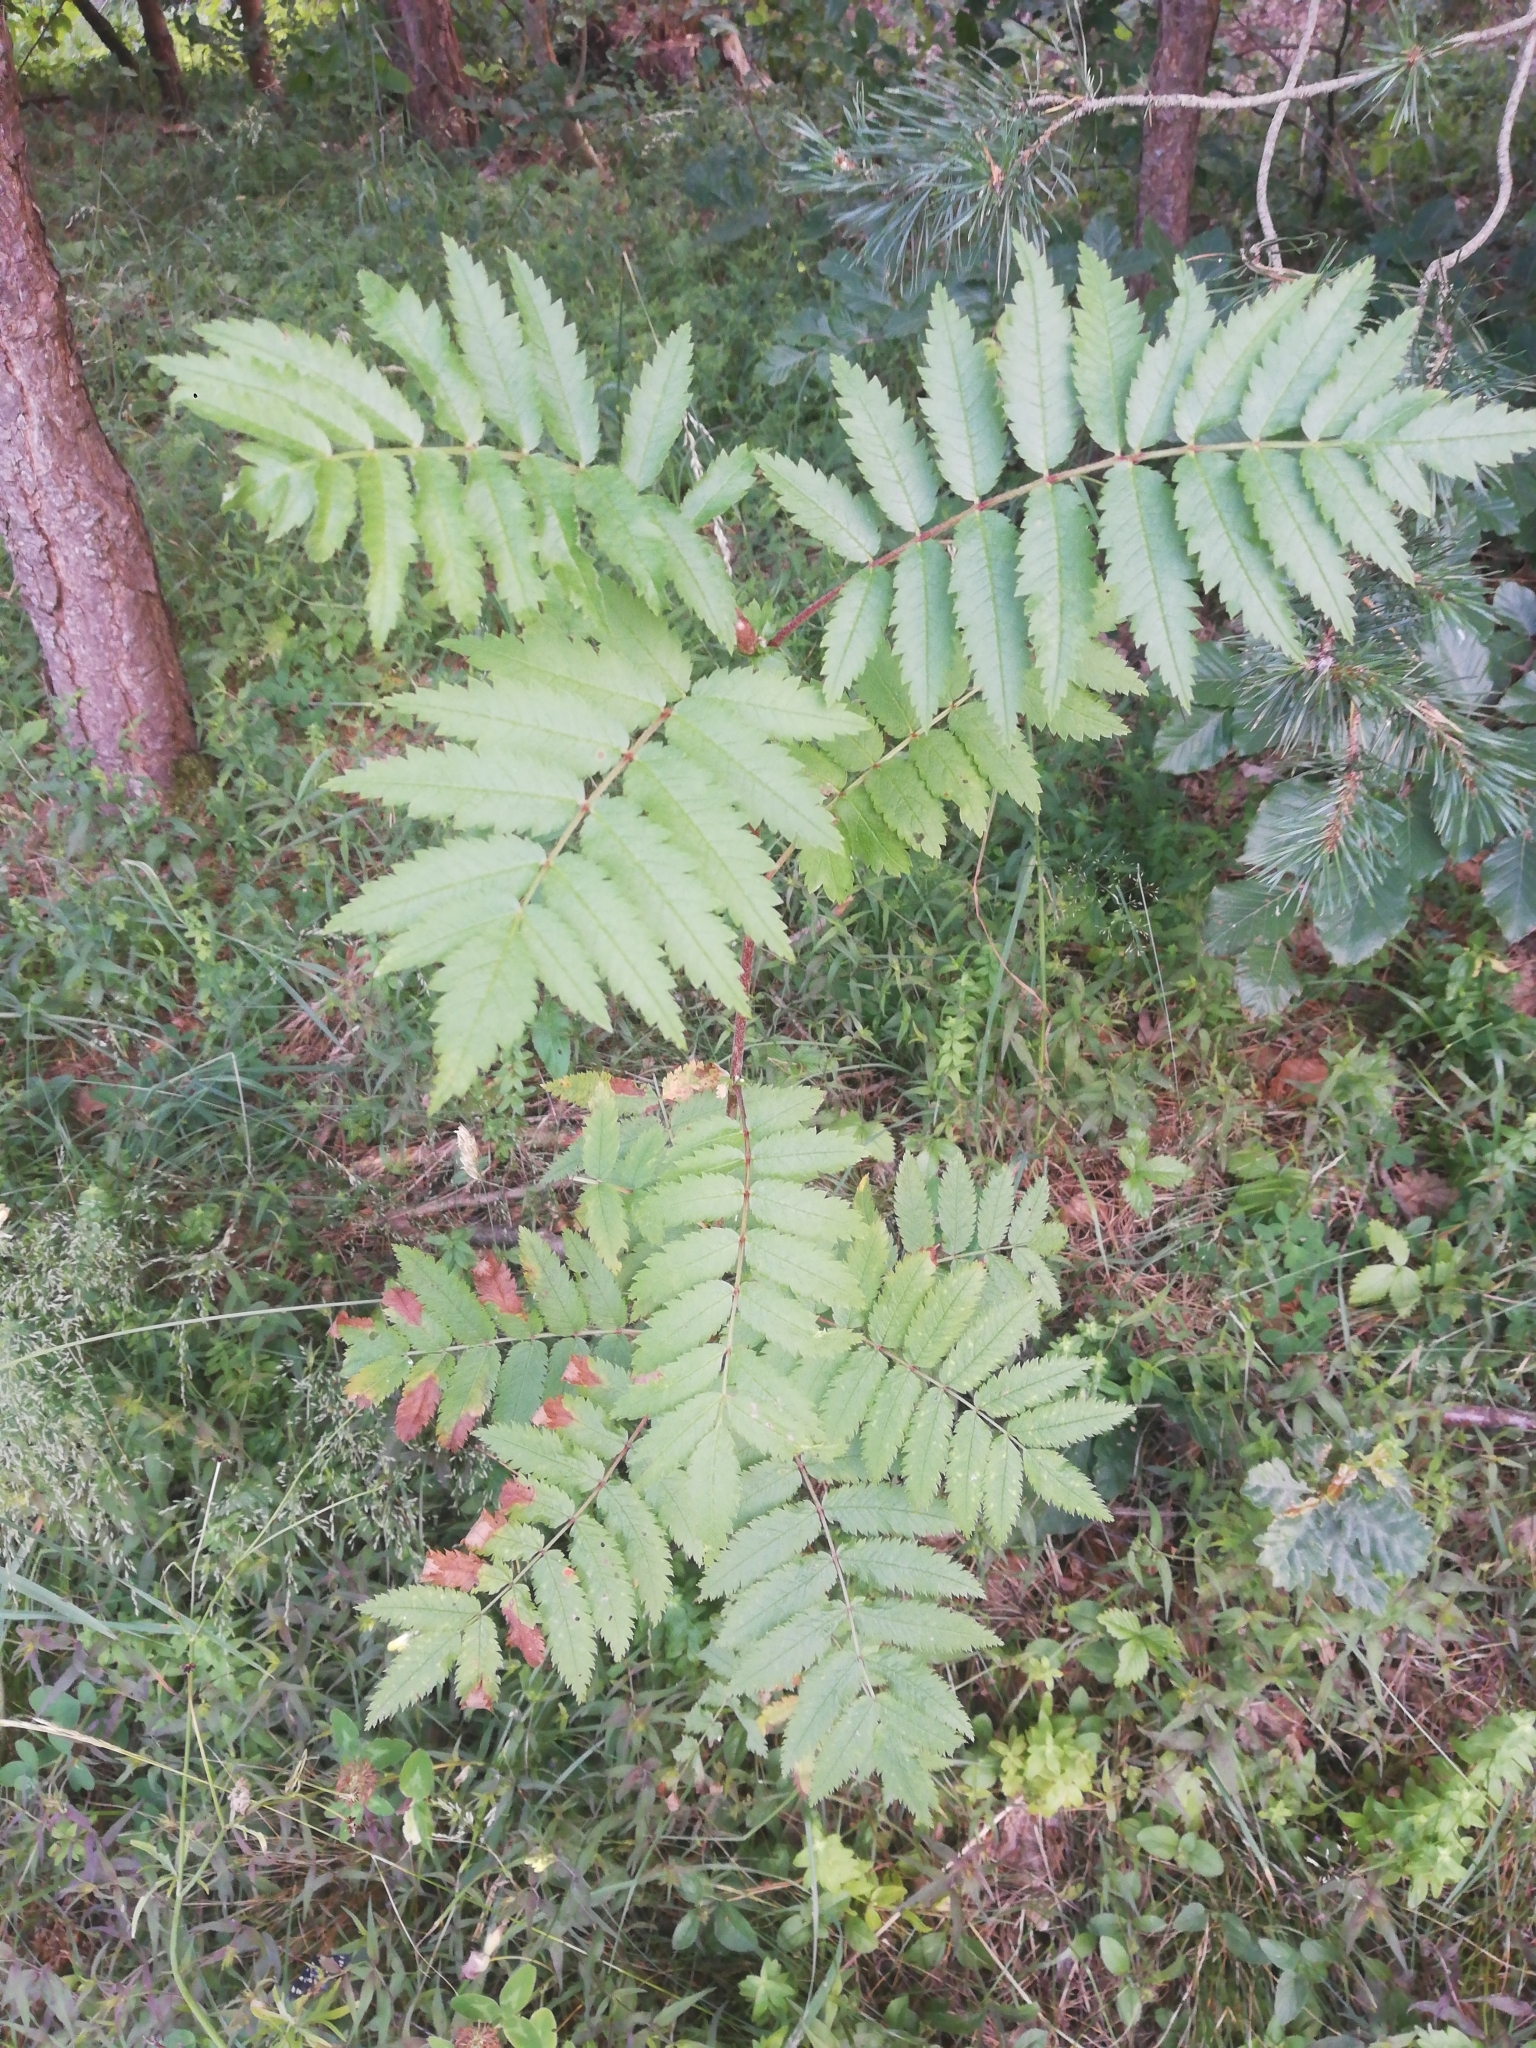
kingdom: Plantae
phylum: Tracheophyta
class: Magnoliopsida
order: Rosales
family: Rosaceae
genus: Sorbus
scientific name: Sorbus aucuparia
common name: Rowan
